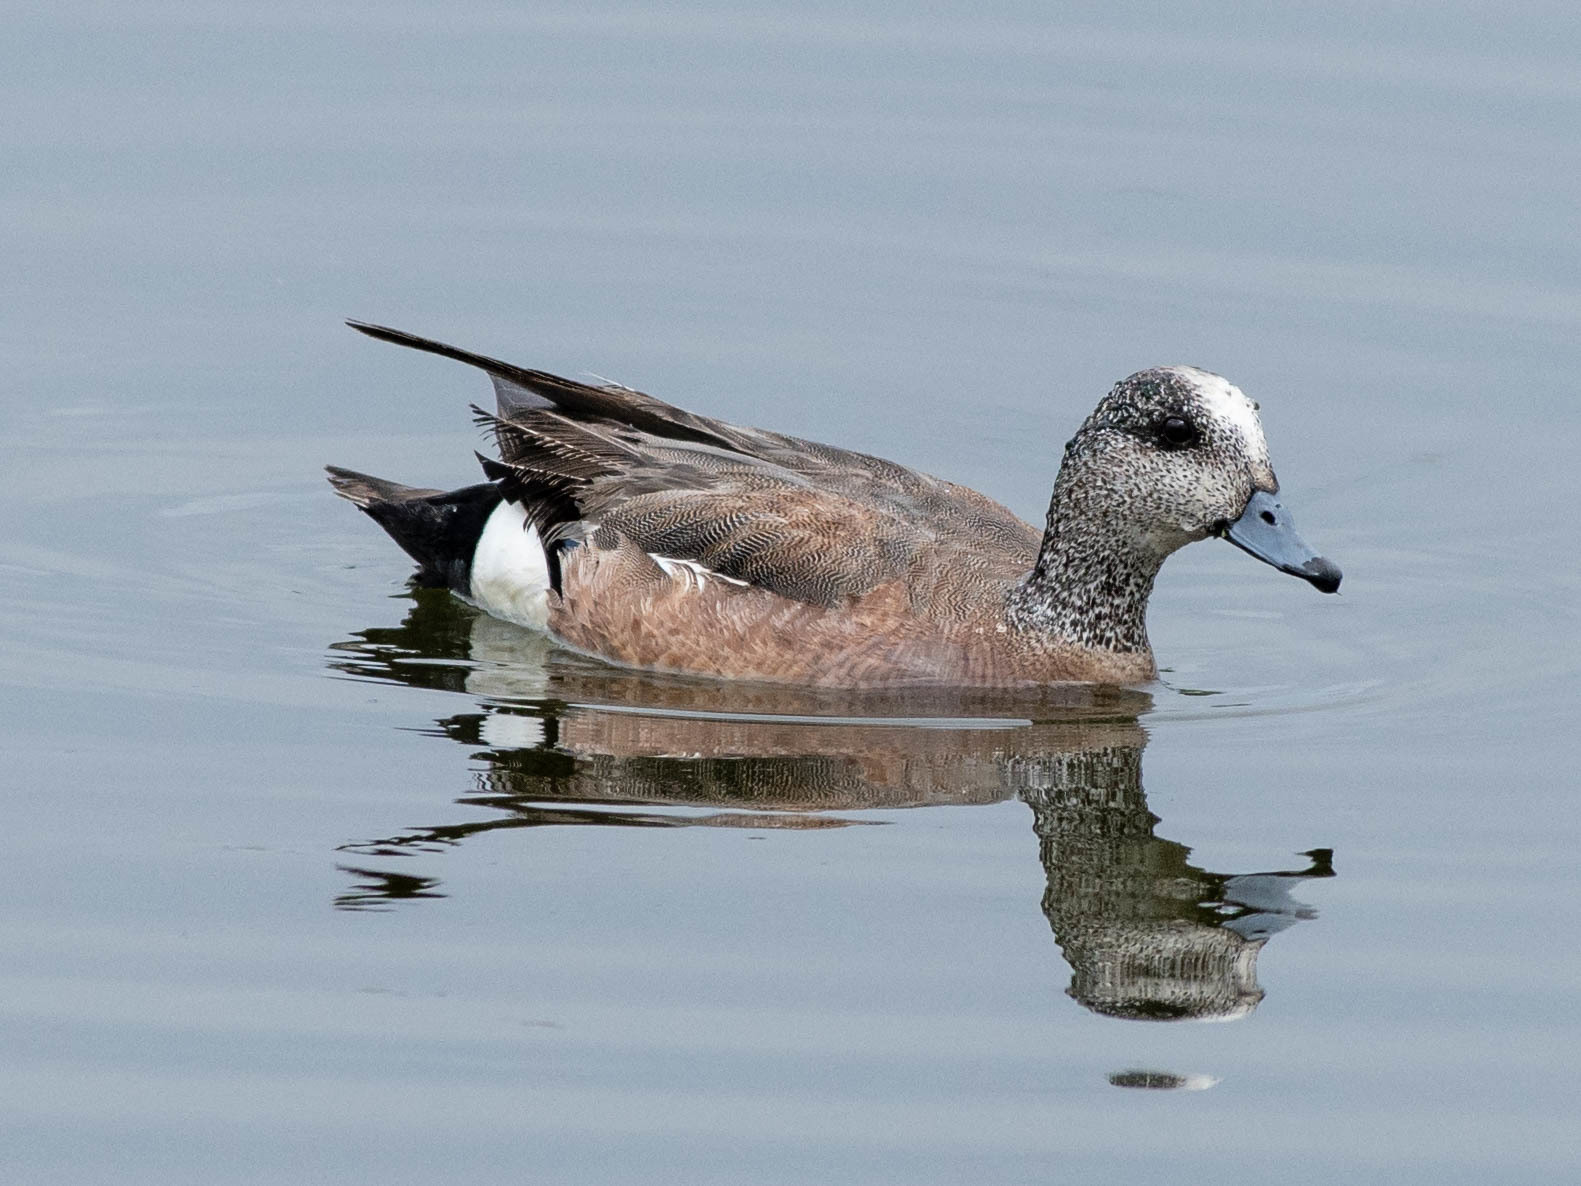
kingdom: Animalia
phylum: Chordata
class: Aves
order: Anseriformes
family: Anatidae
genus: Mareca
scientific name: Mareca americana
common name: American wigeon
